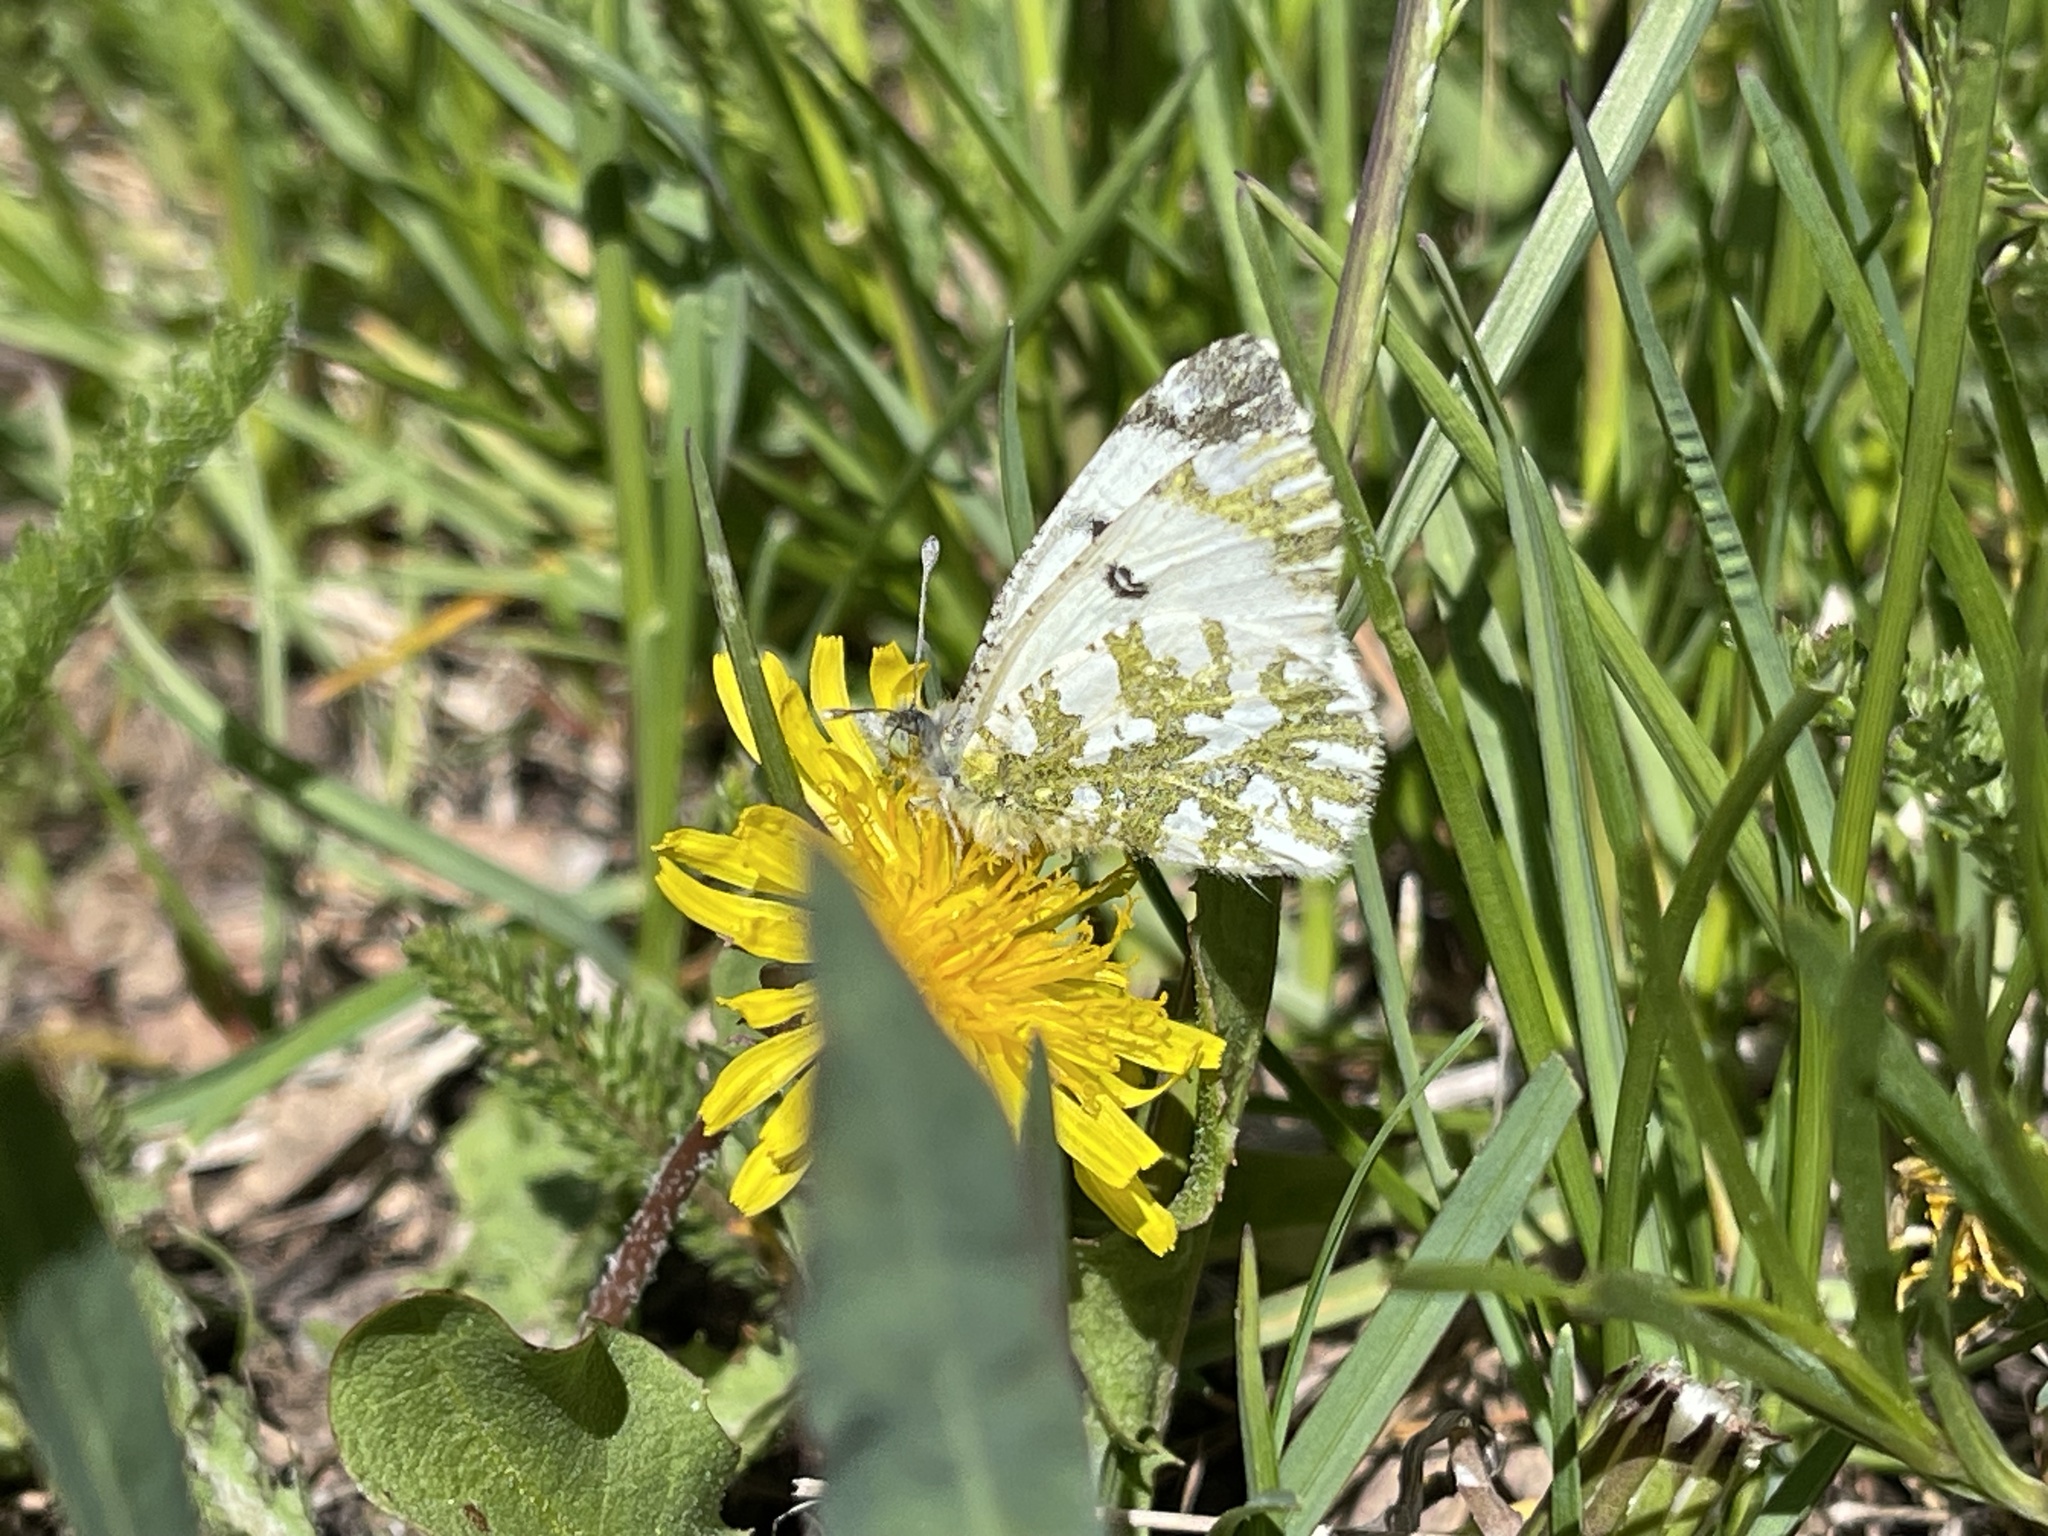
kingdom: Animalia
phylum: Arthropoda
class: Insecta
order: Lepidoptera
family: Pieridae
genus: Euchloe
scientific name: Euchloe ausonides
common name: Creamy marblewing
